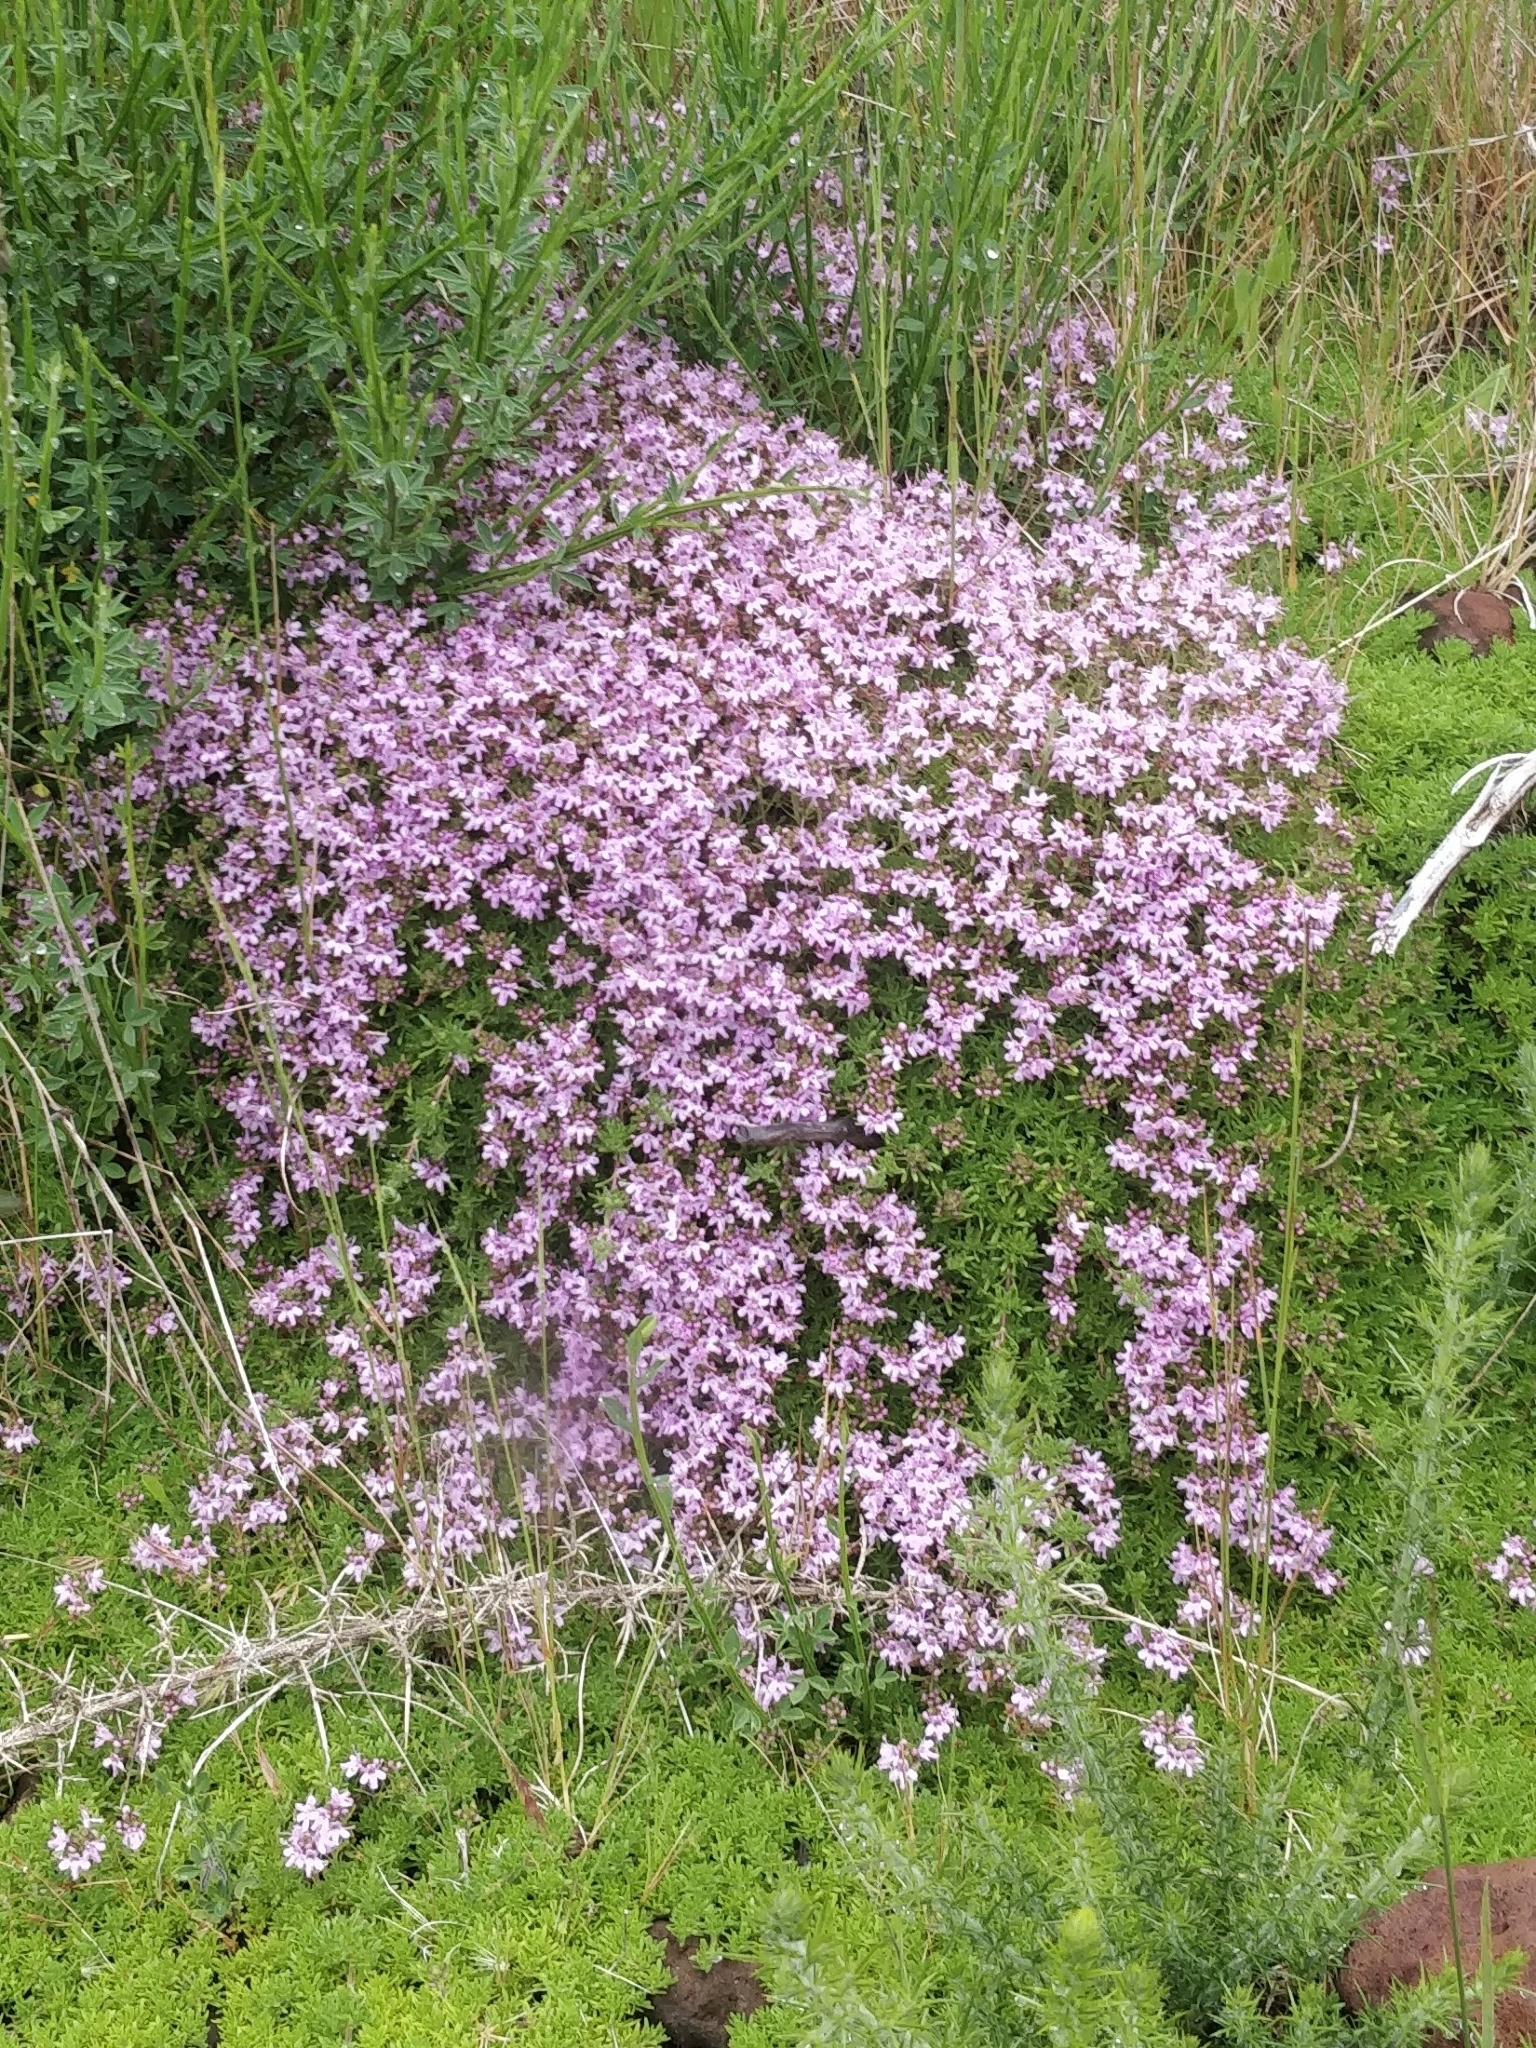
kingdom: Plantae
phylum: Tracheophyta
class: Magnoliopsida
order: Lamiales
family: Lamiaceae
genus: Thymus
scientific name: Thymus caespititius
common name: Azores thyme
